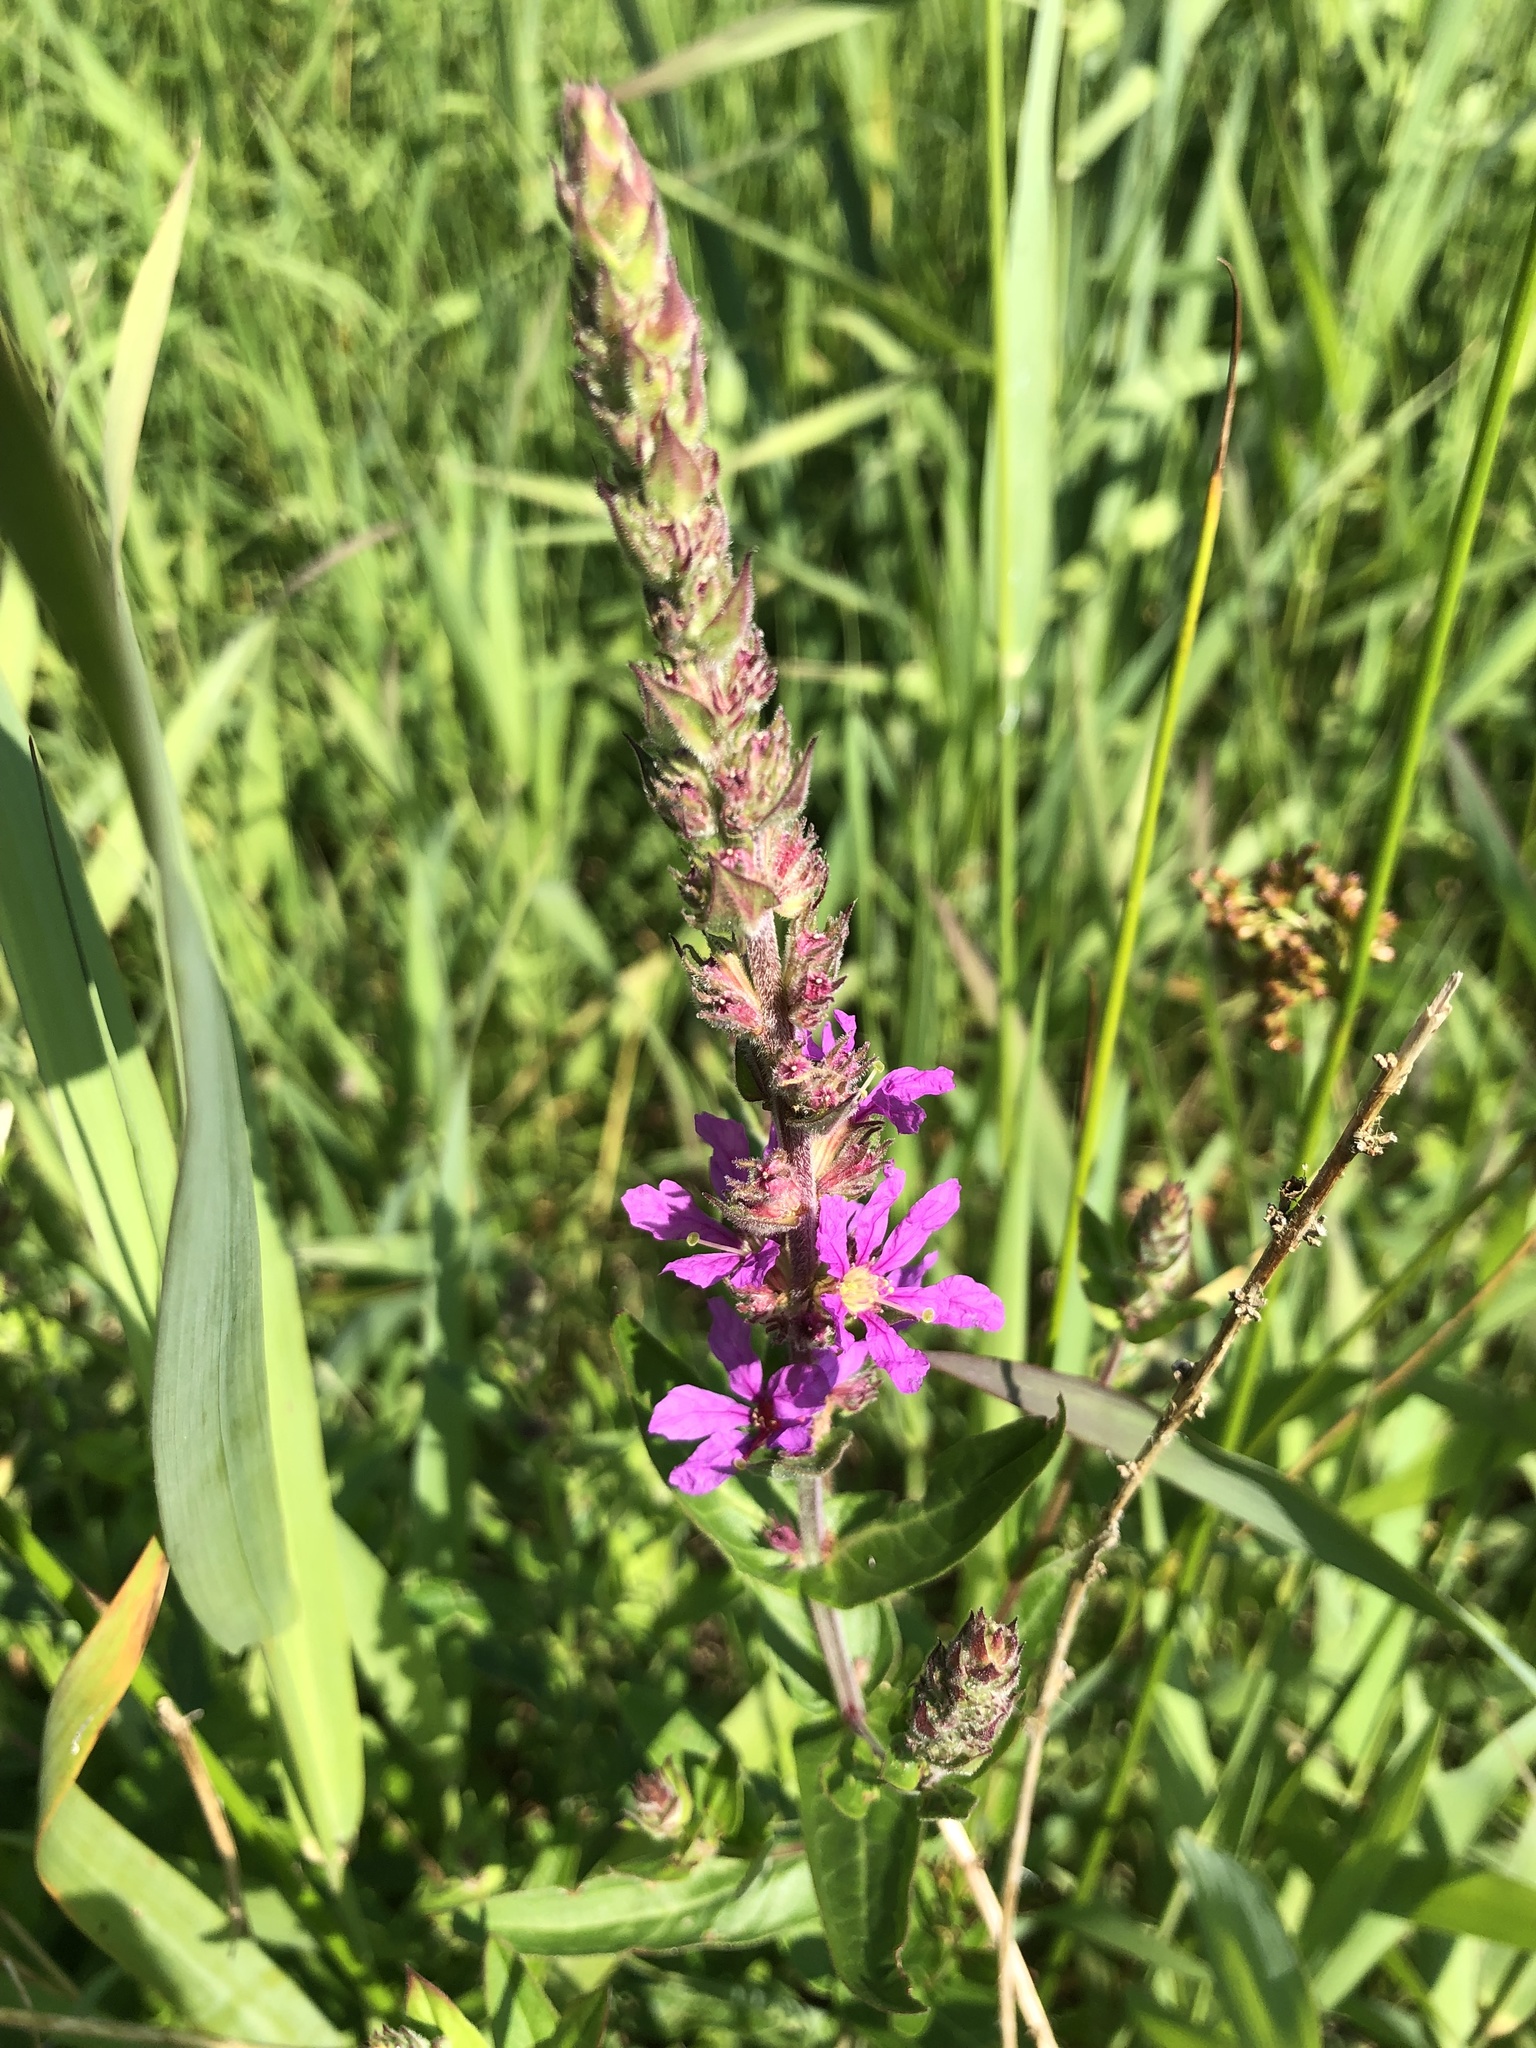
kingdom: Plantae
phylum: Tracheophyta
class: Magnoliopsida
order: Myrtales
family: Lythraceae
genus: Lythrum
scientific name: Lythrum salicaria
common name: Purple loosestrife
